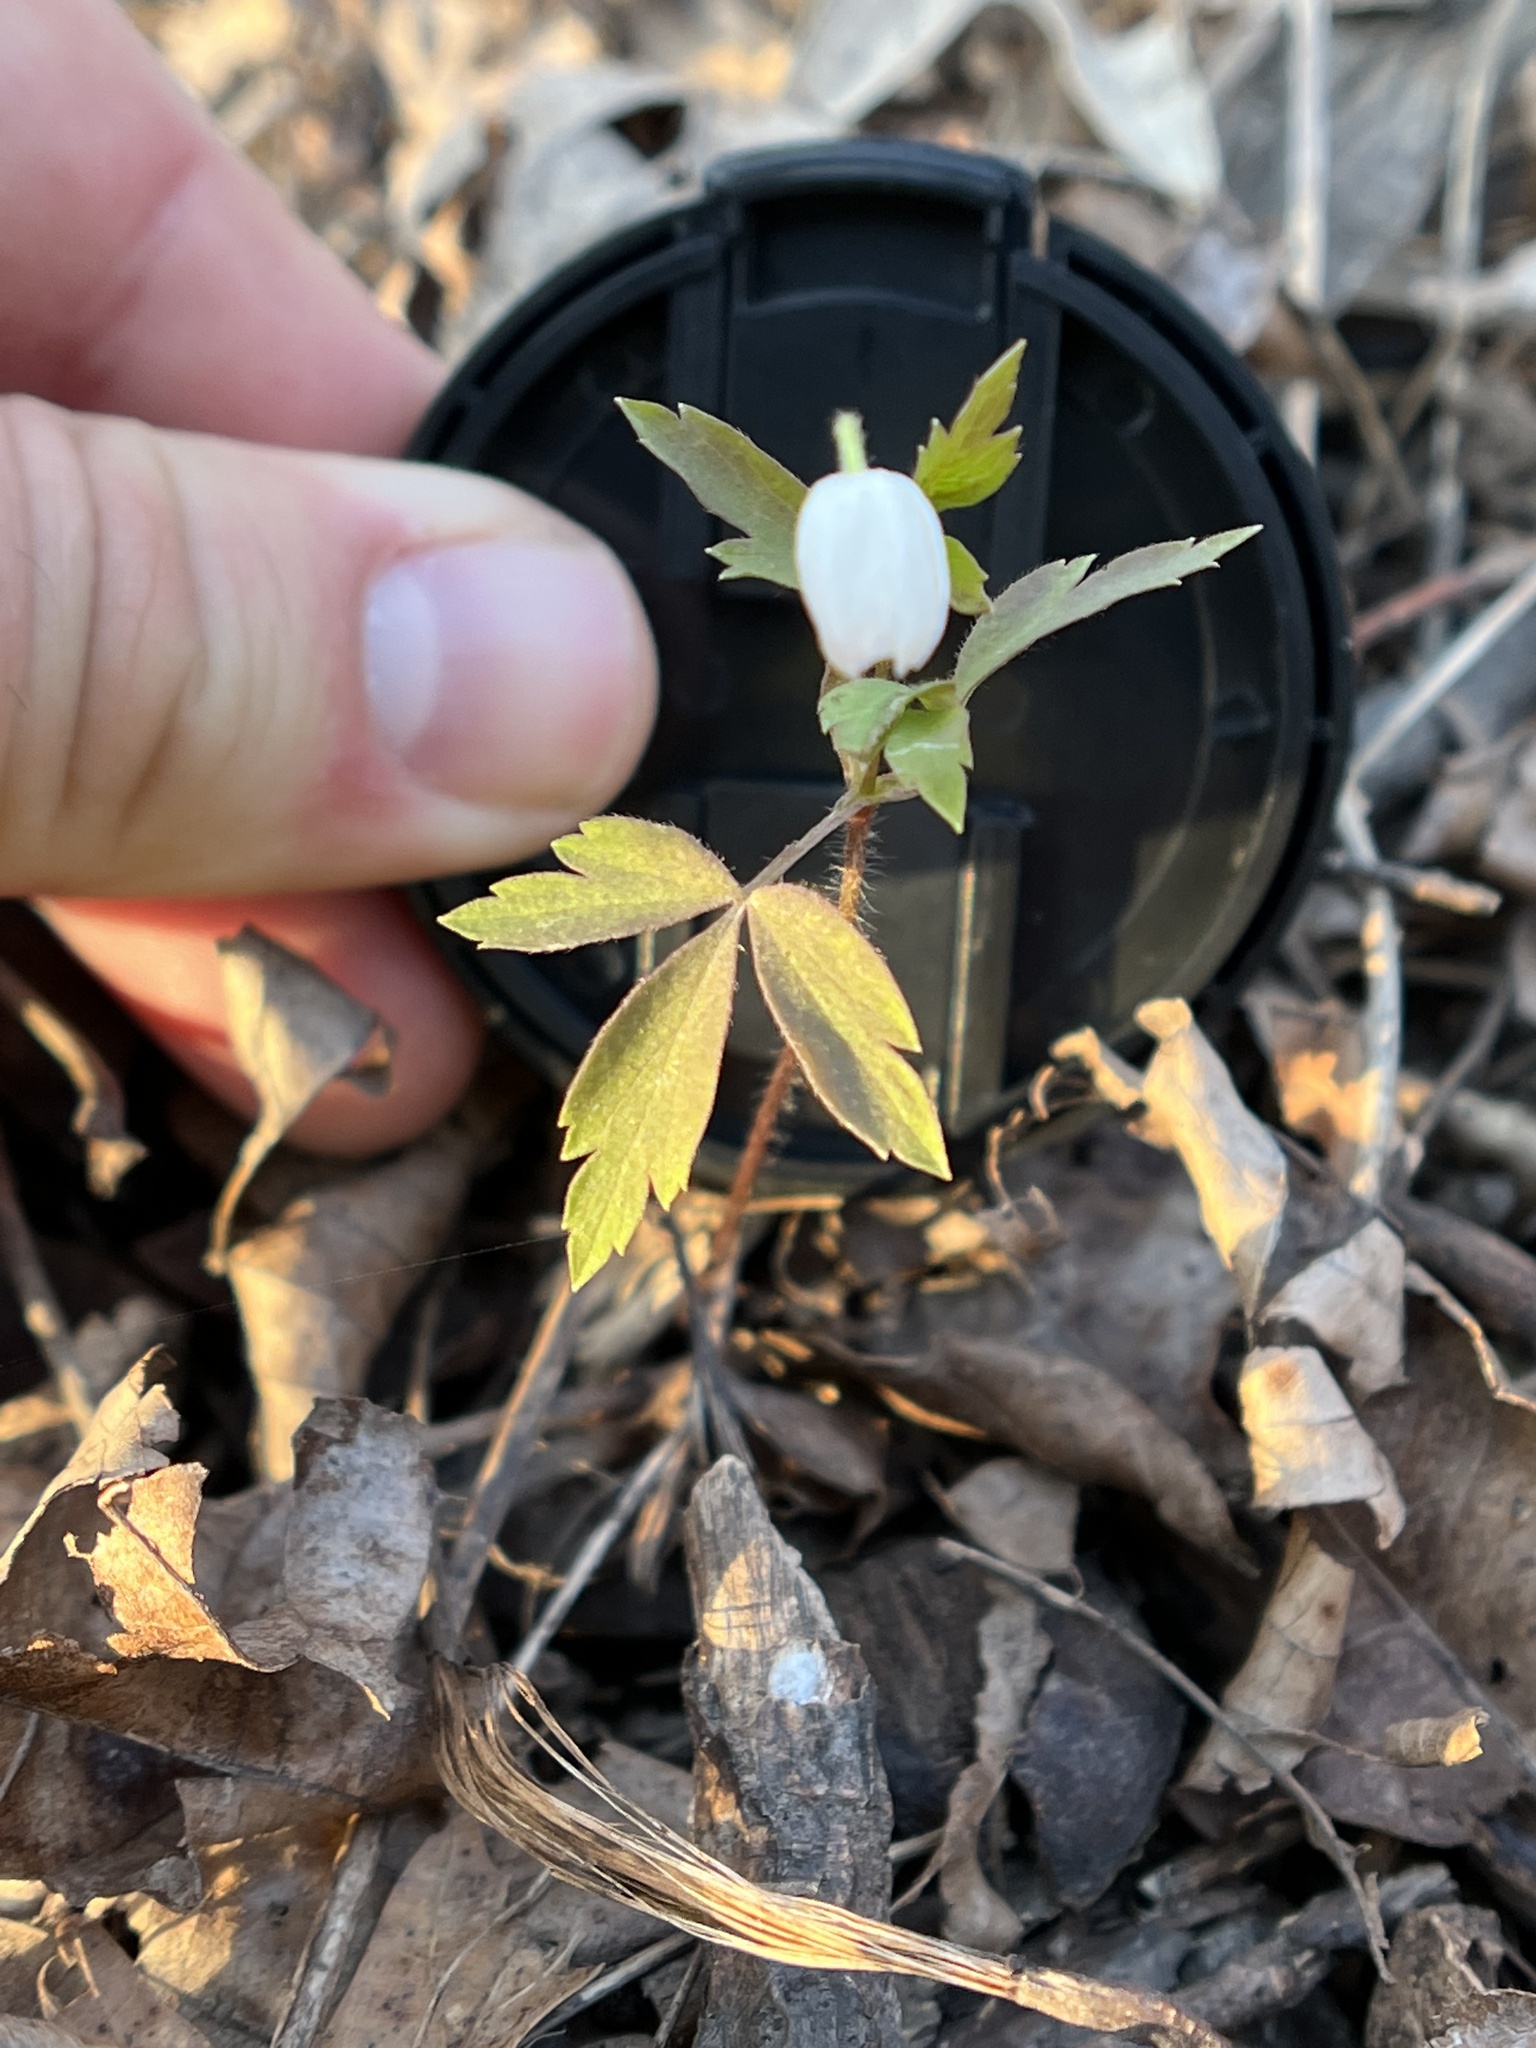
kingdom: Plantae
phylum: Tracheophyta
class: Magnoliopsida
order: Ranunculales
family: Ranunculaceae
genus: Anemone
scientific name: Anemone quinquefolia
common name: Wood anemone
